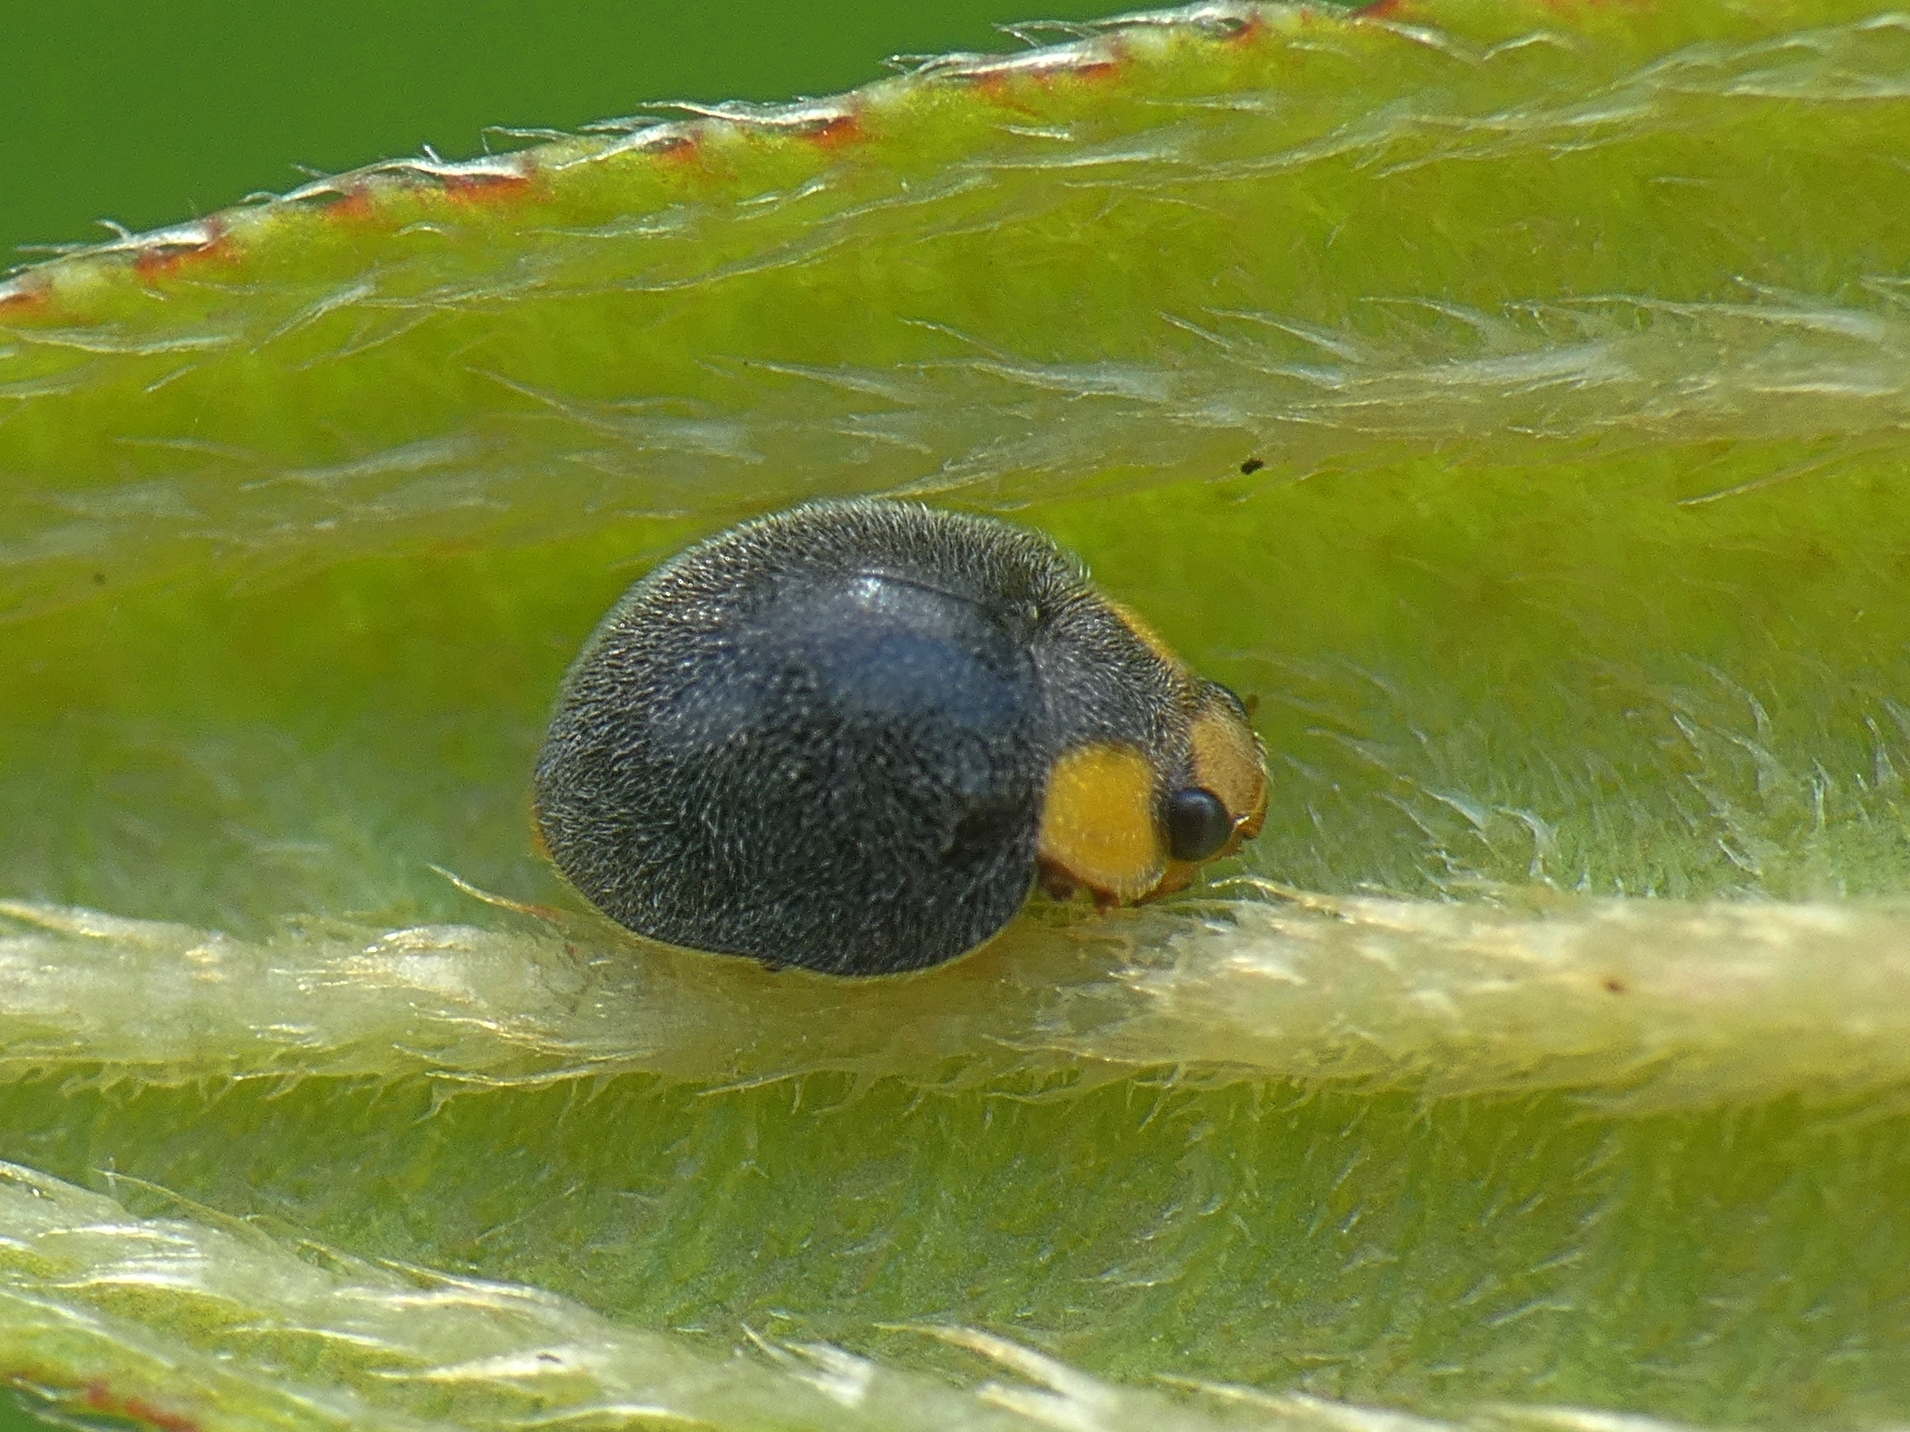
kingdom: Animalia
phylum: Arthropoda
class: Insecta
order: Coleoptera
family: Coccinellidae
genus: Scymnodes
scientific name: Scymnodes lividigaster
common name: Yellowshouldered lady beetle
